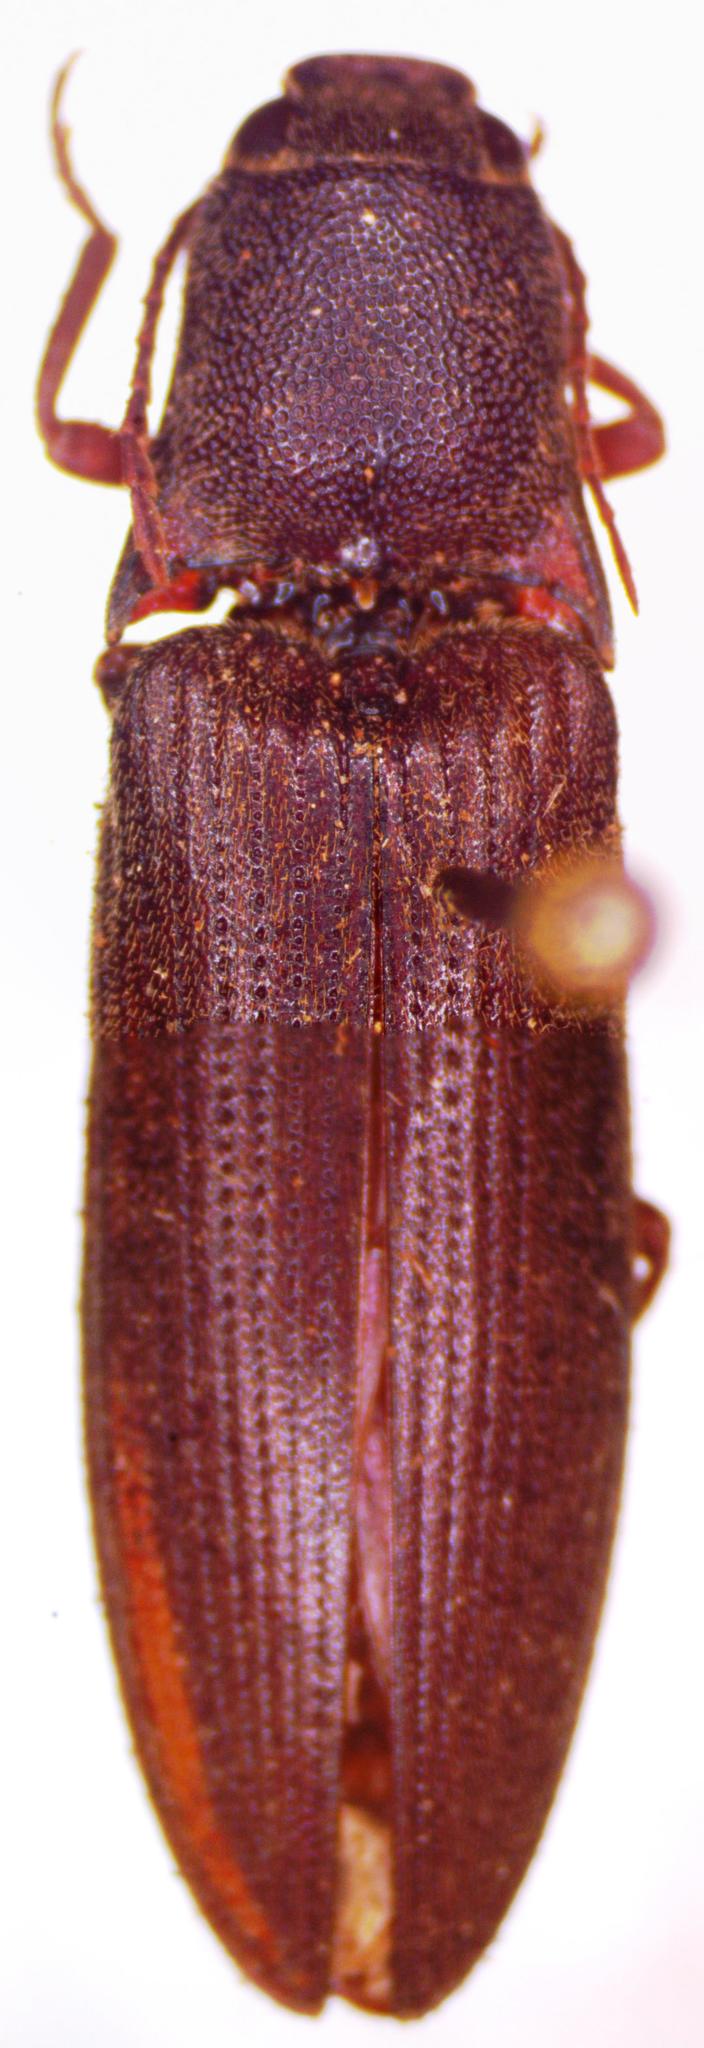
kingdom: Animalia
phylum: Arthropoda
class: Insecta
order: Coleoptera
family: Elateridae
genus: Propsephus
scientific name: Propsephus
